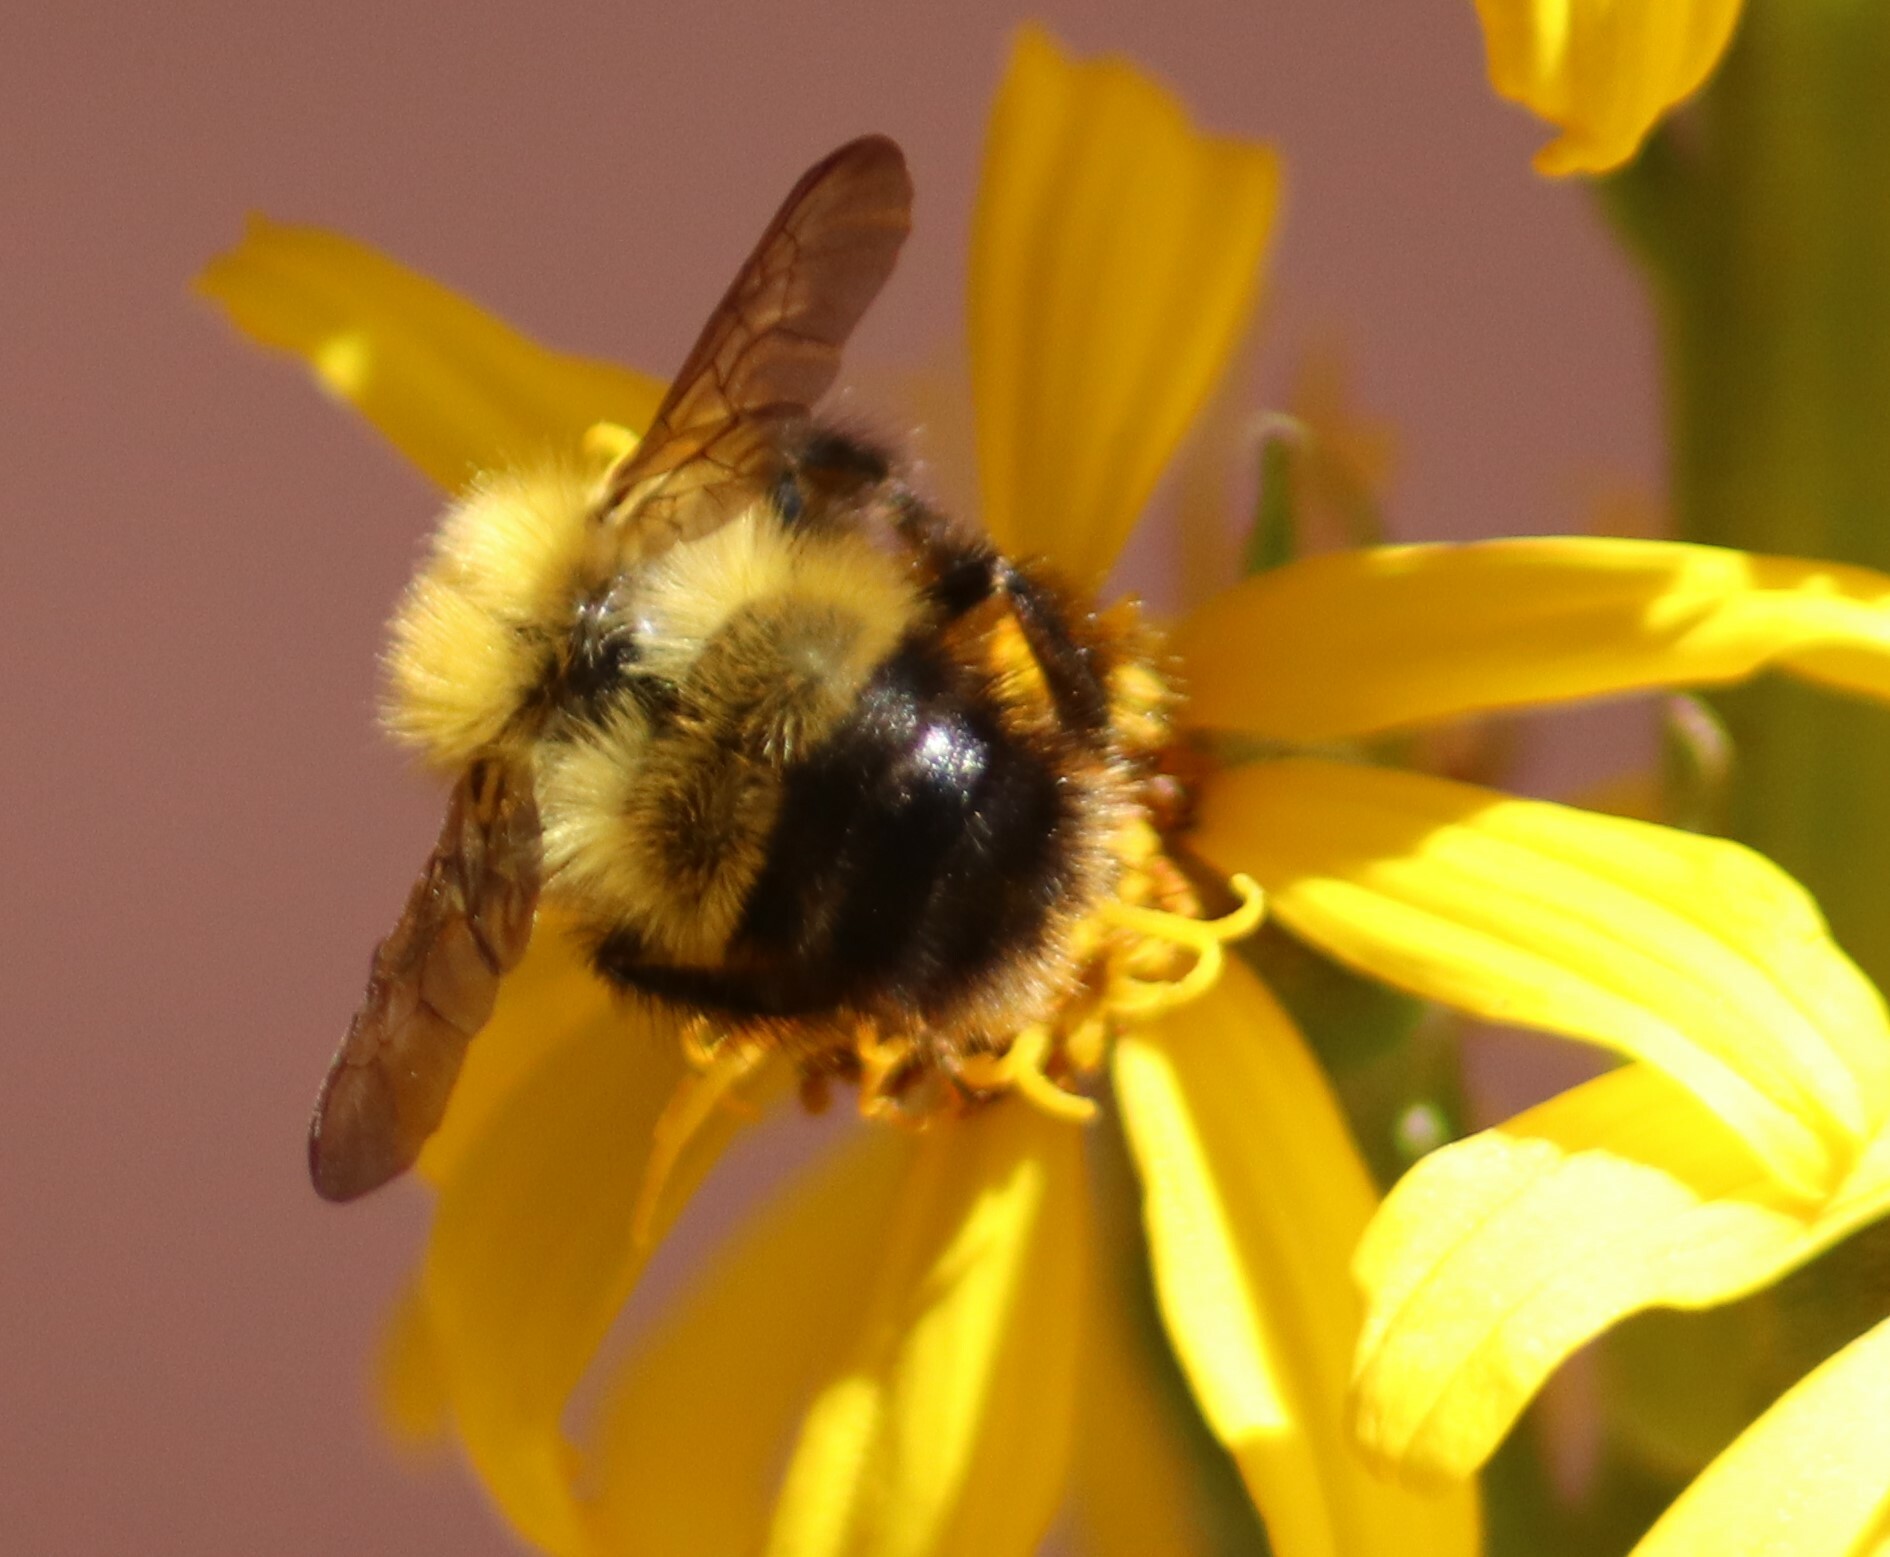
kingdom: Animalia
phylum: Arthropoda
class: Insecta
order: Hymenoptera
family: Apidae
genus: Bombus
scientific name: Bombus perplexus
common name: Confusing bumble bee
